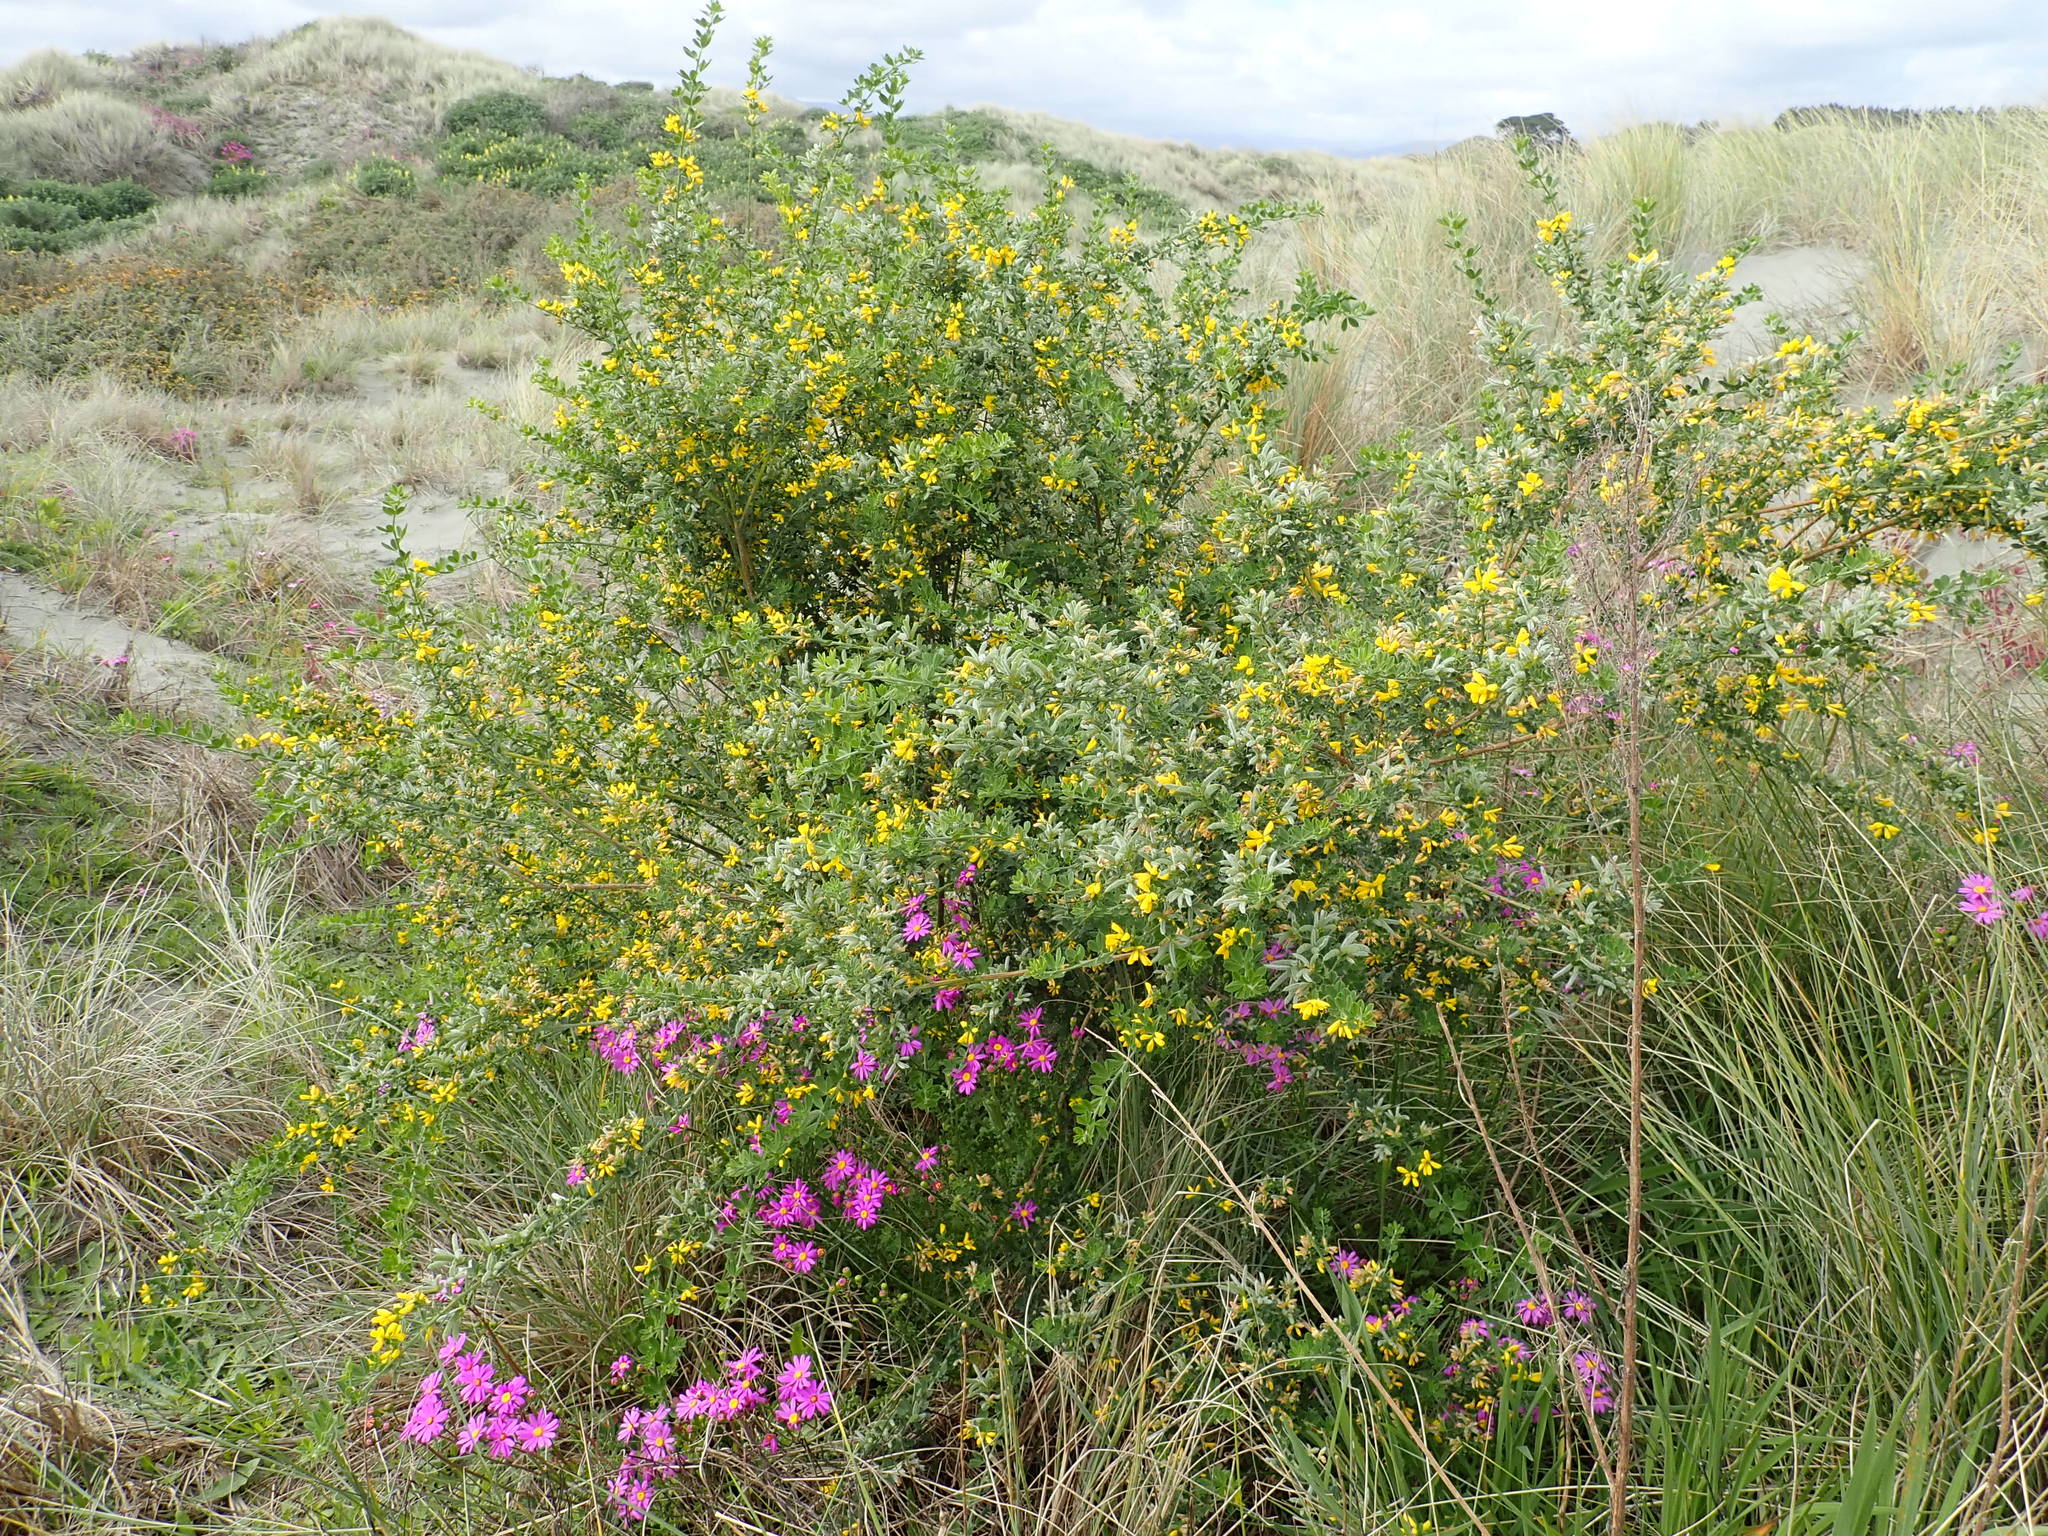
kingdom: Plantae
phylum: Tracheophyta
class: Magnoliopsida
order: Fabales
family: Fabaceae
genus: Genista
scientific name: Genista monspessulana
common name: Montpellier broom
